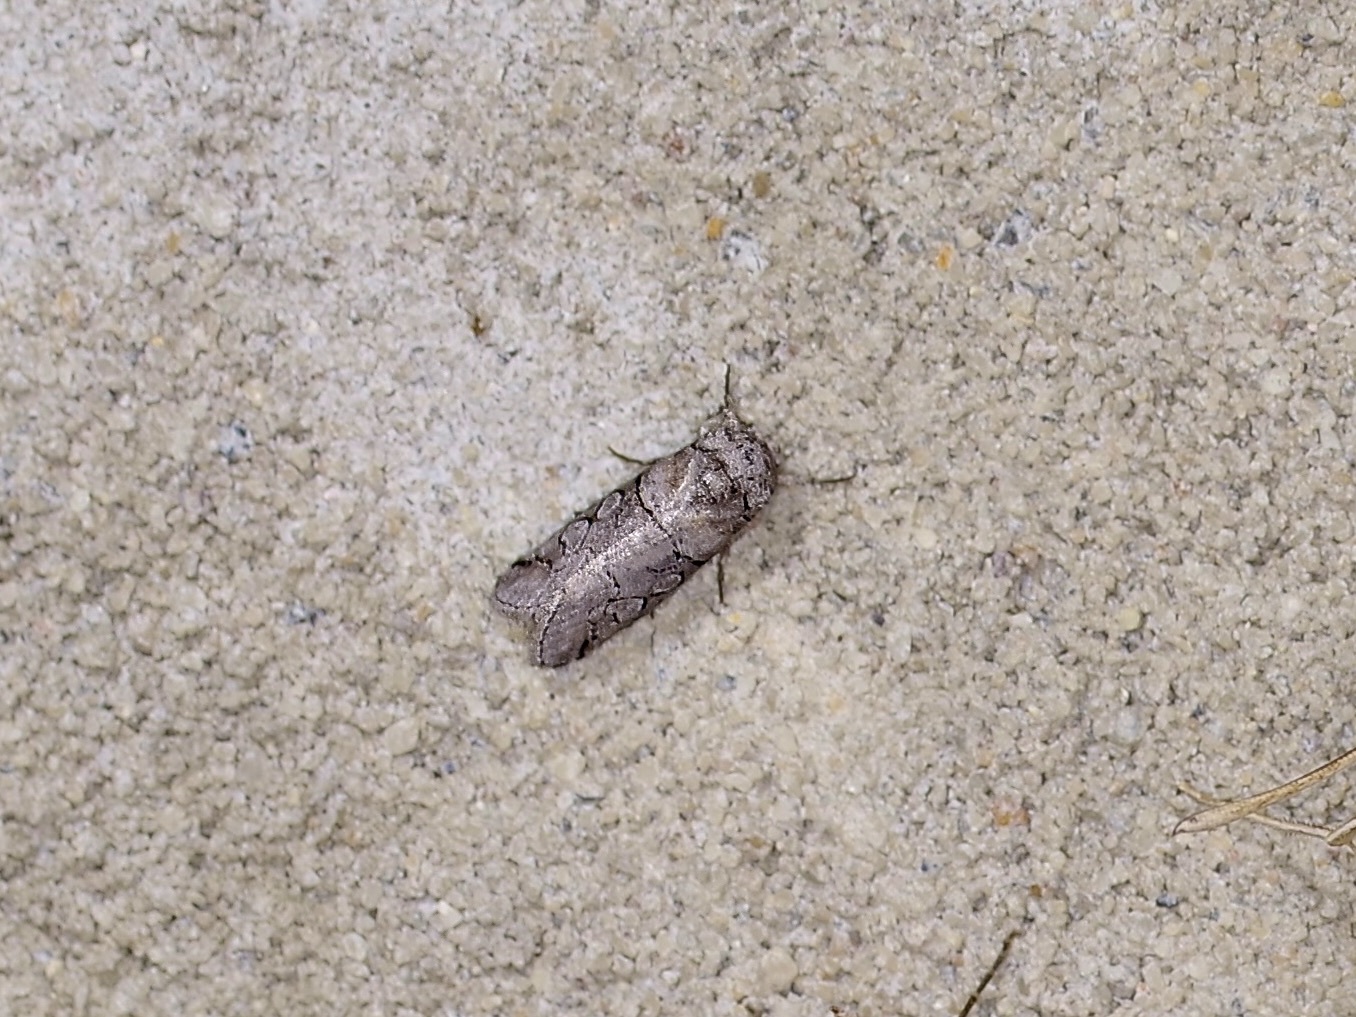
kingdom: Animalia
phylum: Arthropoda
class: Insecta
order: Lepidoptera
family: Noctuidae
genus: Anycteola
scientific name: Anycteola fotelloides
